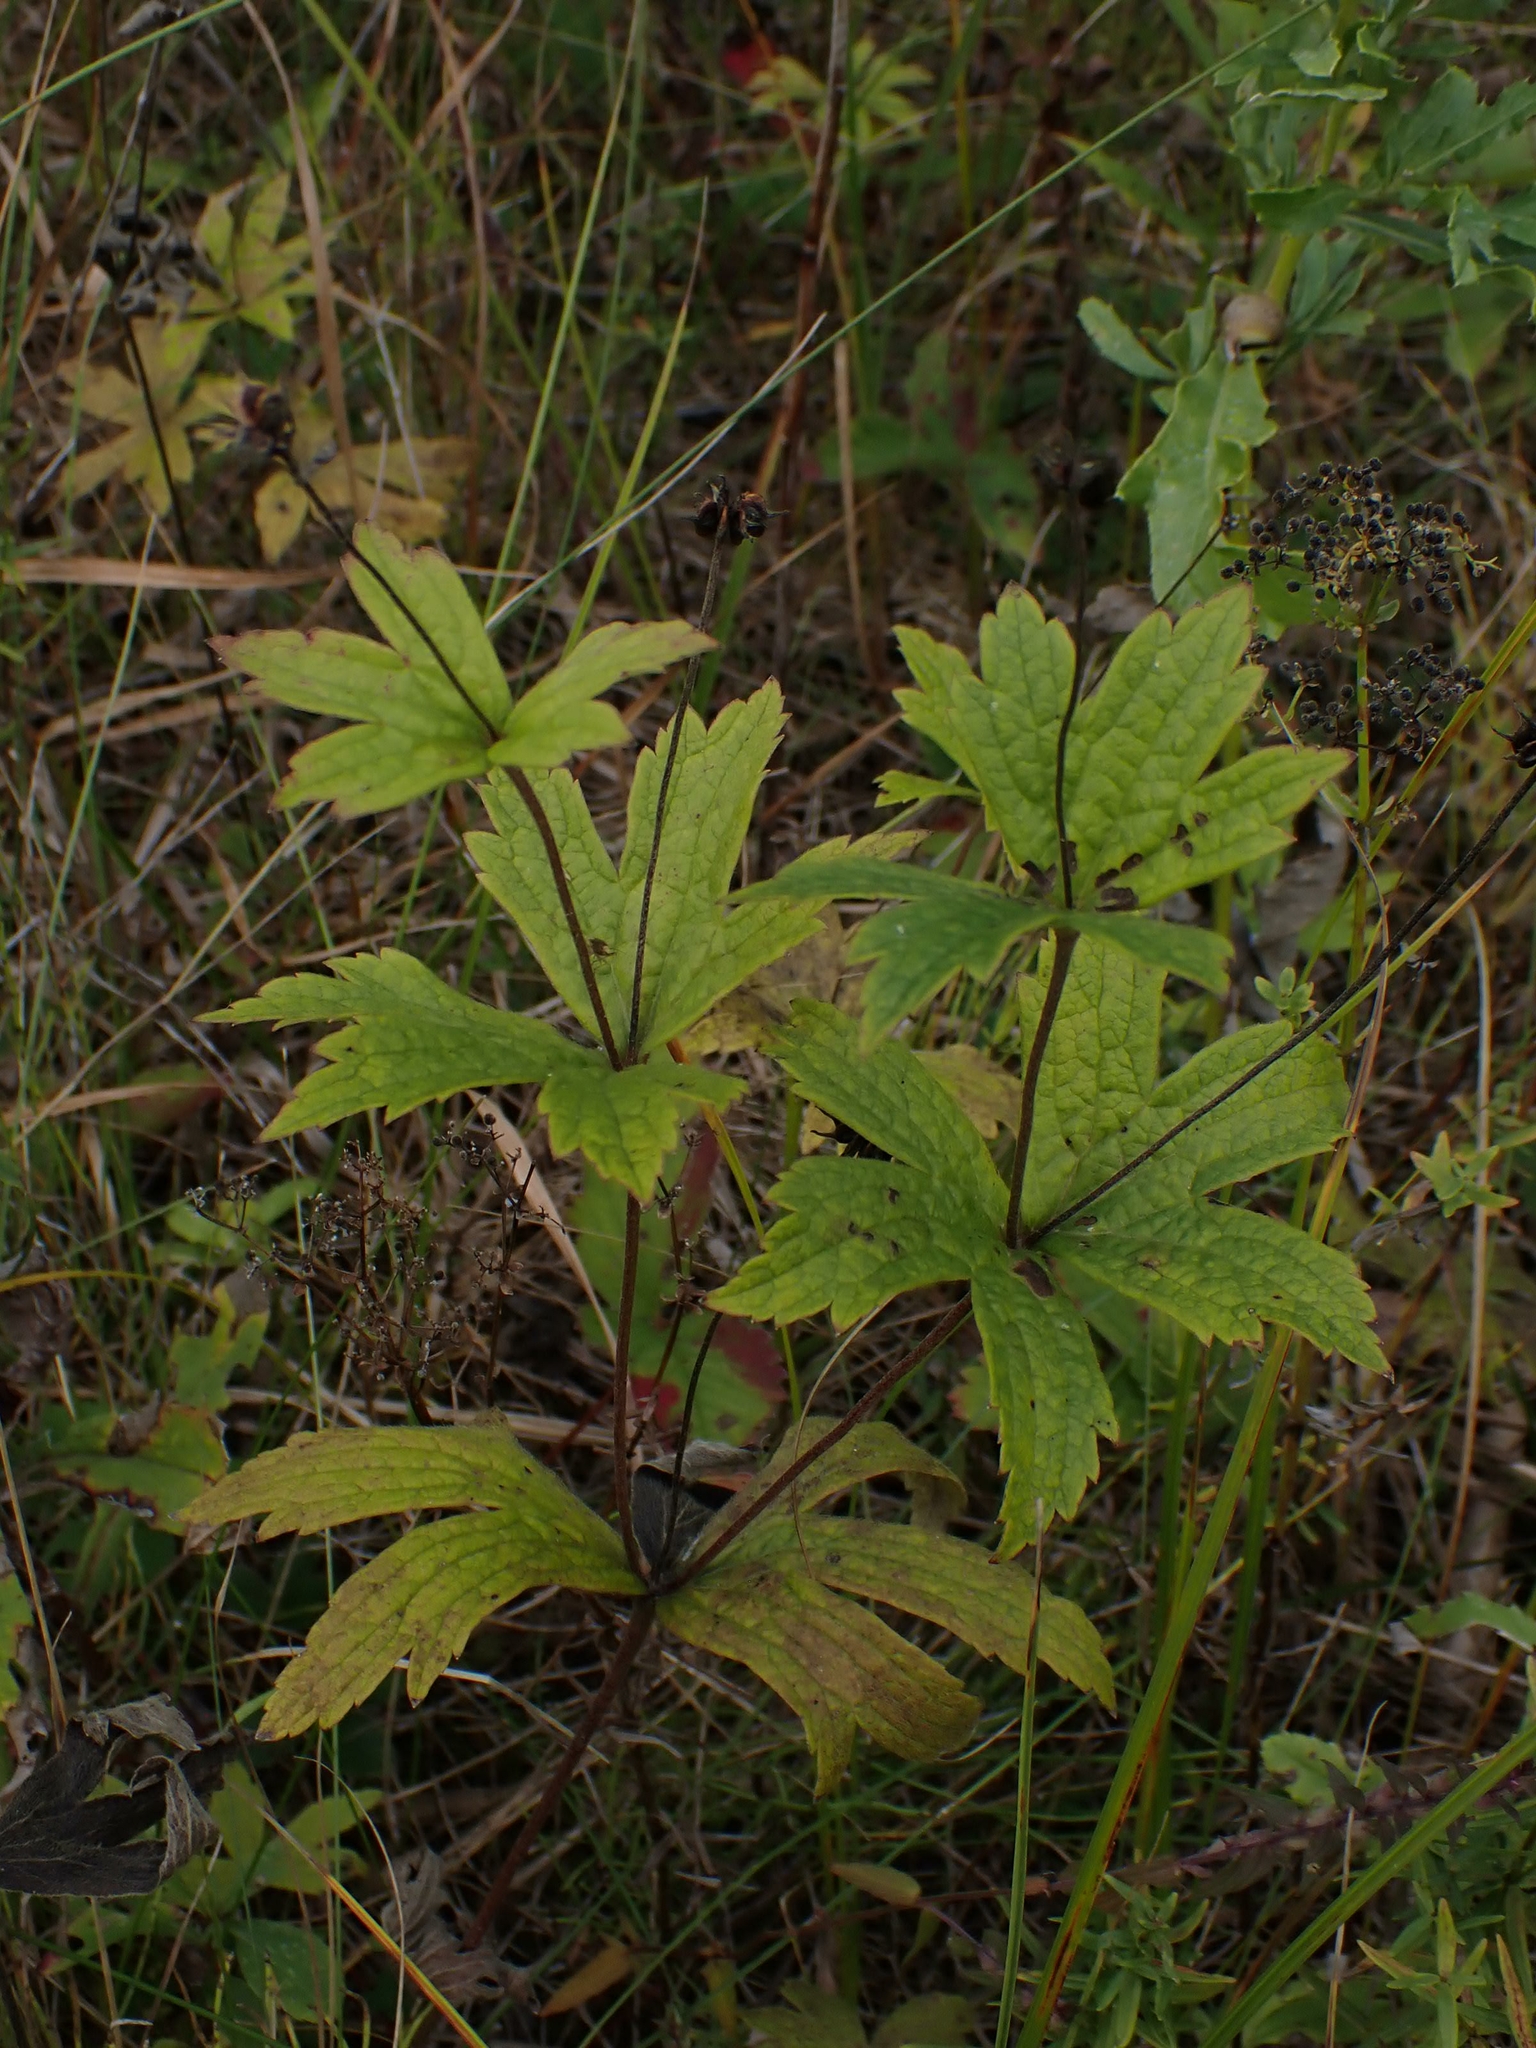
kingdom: Plantae
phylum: Tracheophyta
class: Magnoliopsida
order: Ranunculales
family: Ranunculaceae
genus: Anemonastrum
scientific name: Anemonastrum canadense
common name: Canada anemone
